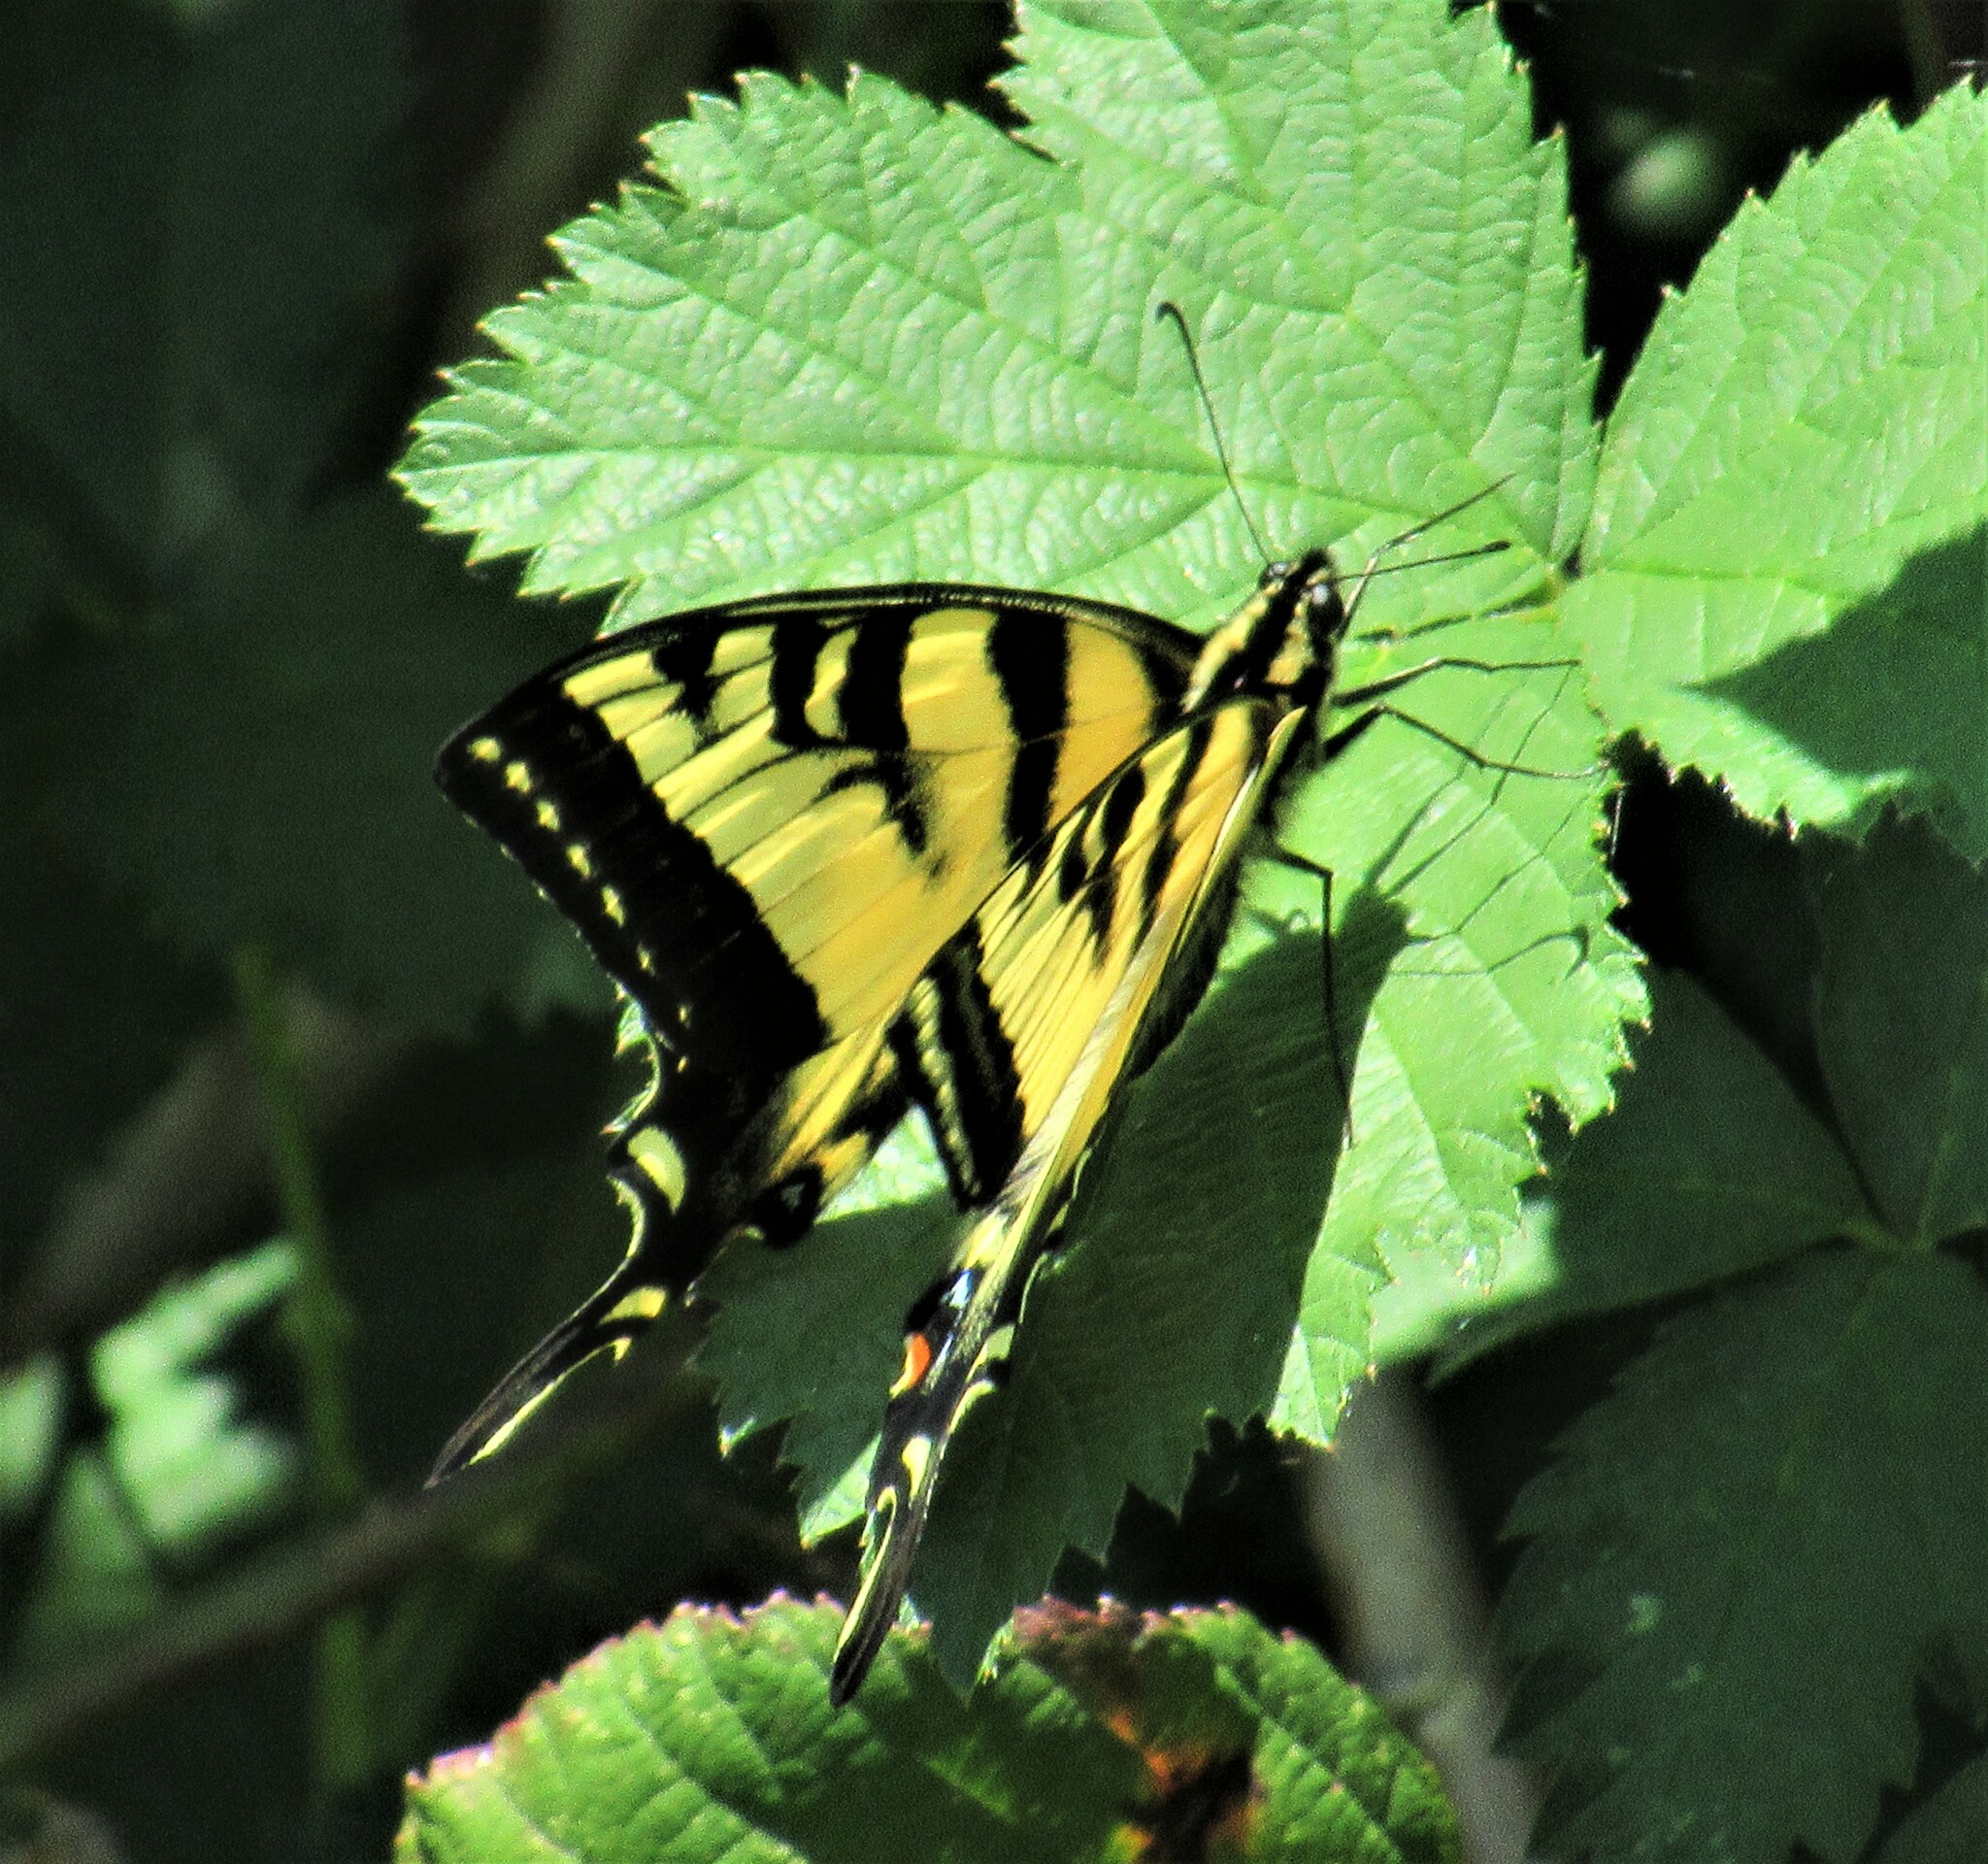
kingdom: Animalia
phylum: Arthropoda
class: Insecta
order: Lepidoptera
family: Papilionidae
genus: Papilio
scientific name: Papilio rutulus
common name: Western tiger swallowtail
